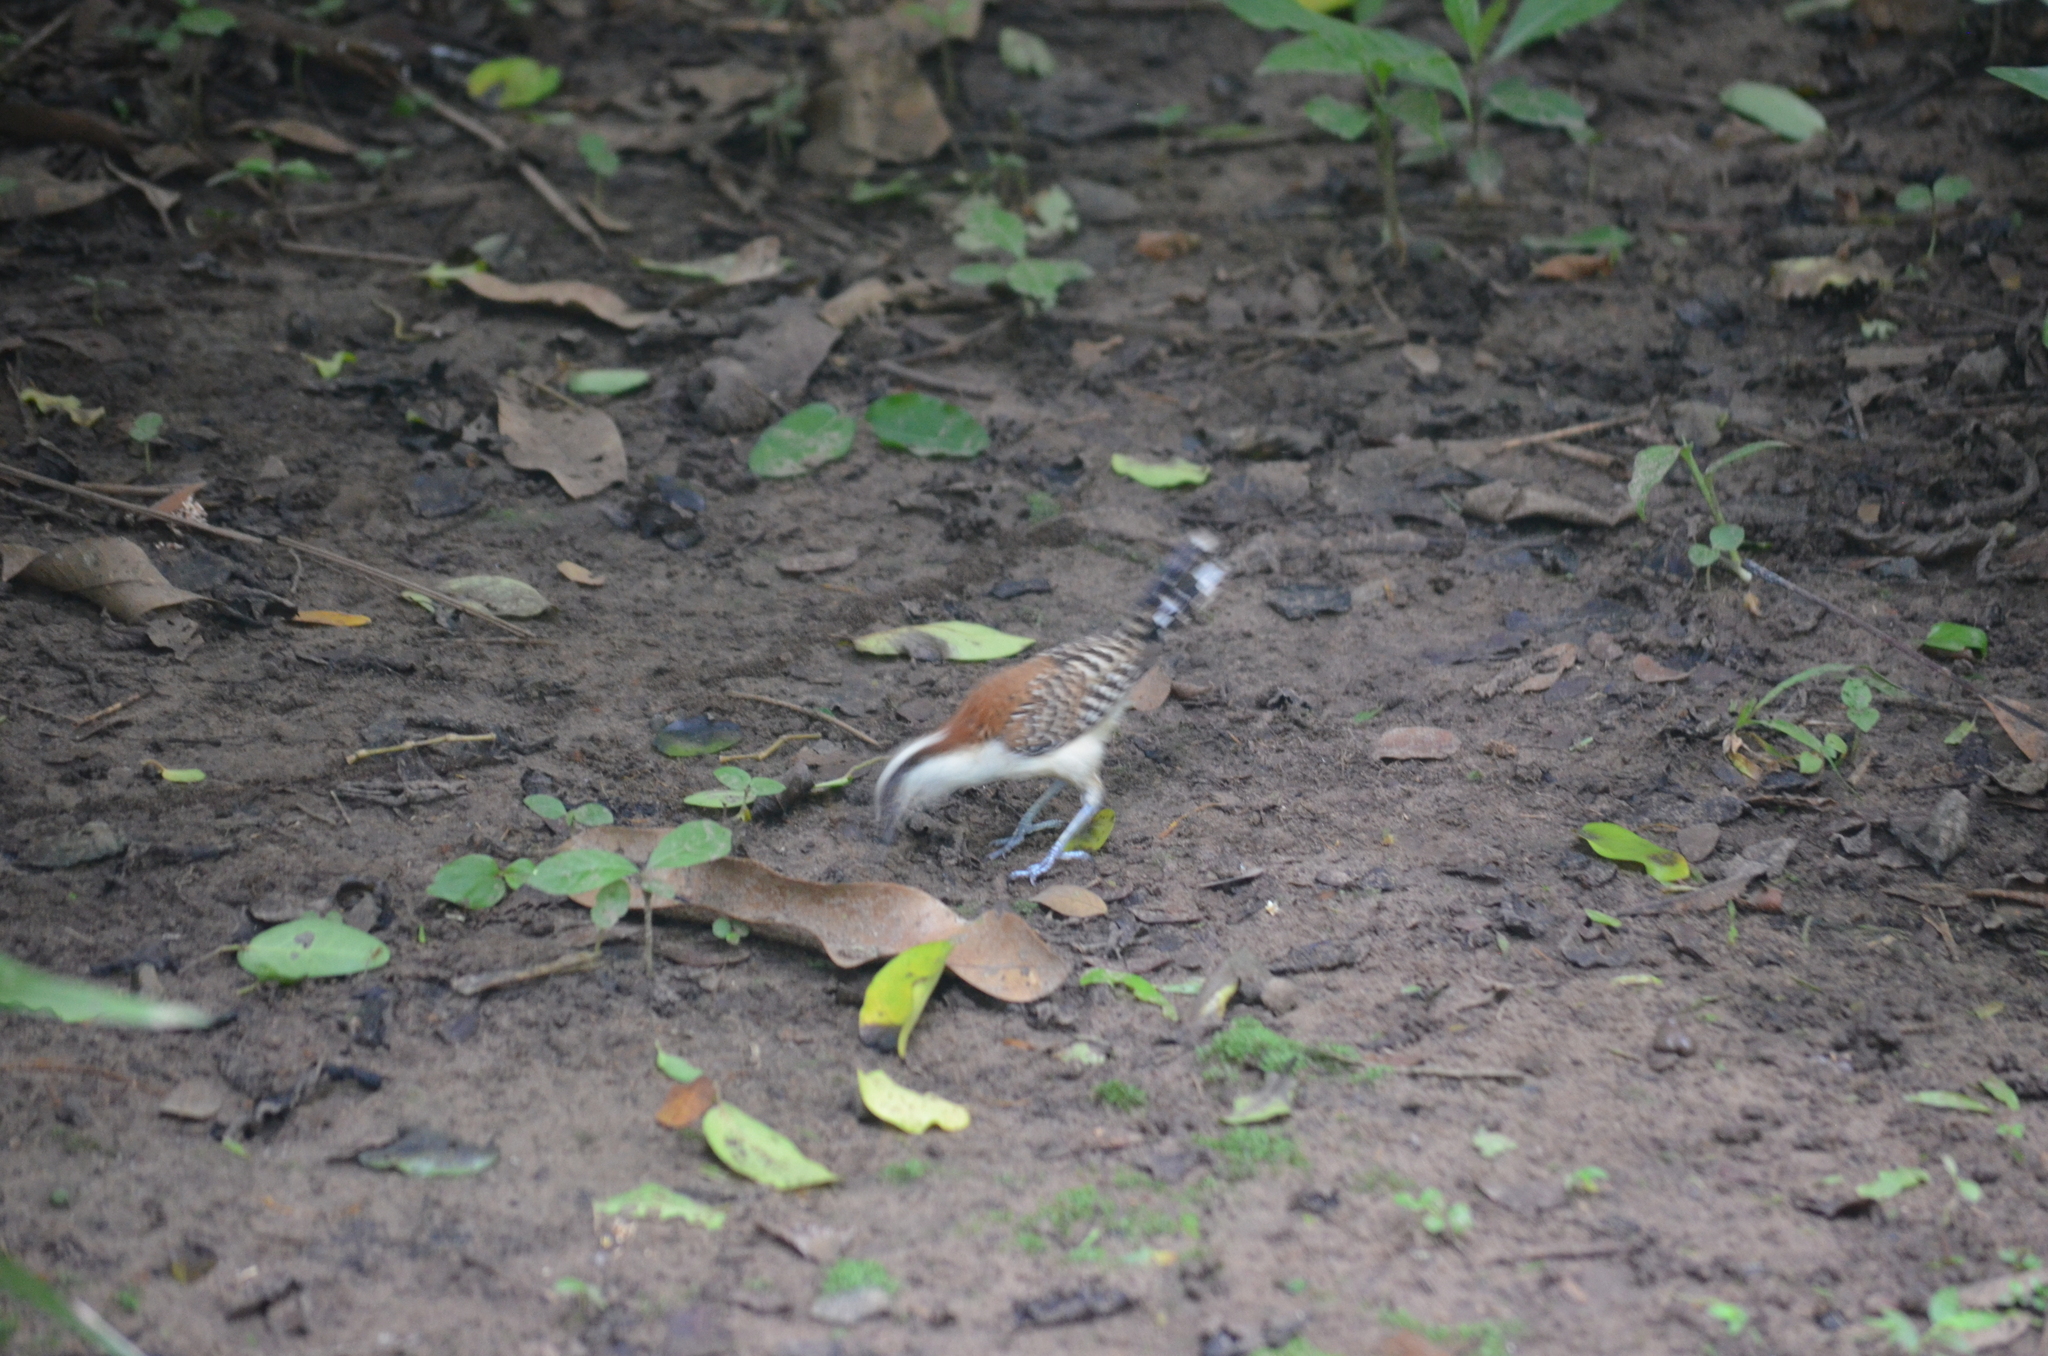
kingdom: Animalia
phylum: Chordata
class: Aves
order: Passeriformes
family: Troglodytidae
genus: Campylorhynchus
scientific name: Campylorhynchus rufinucha
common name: Rufous-naped wren
